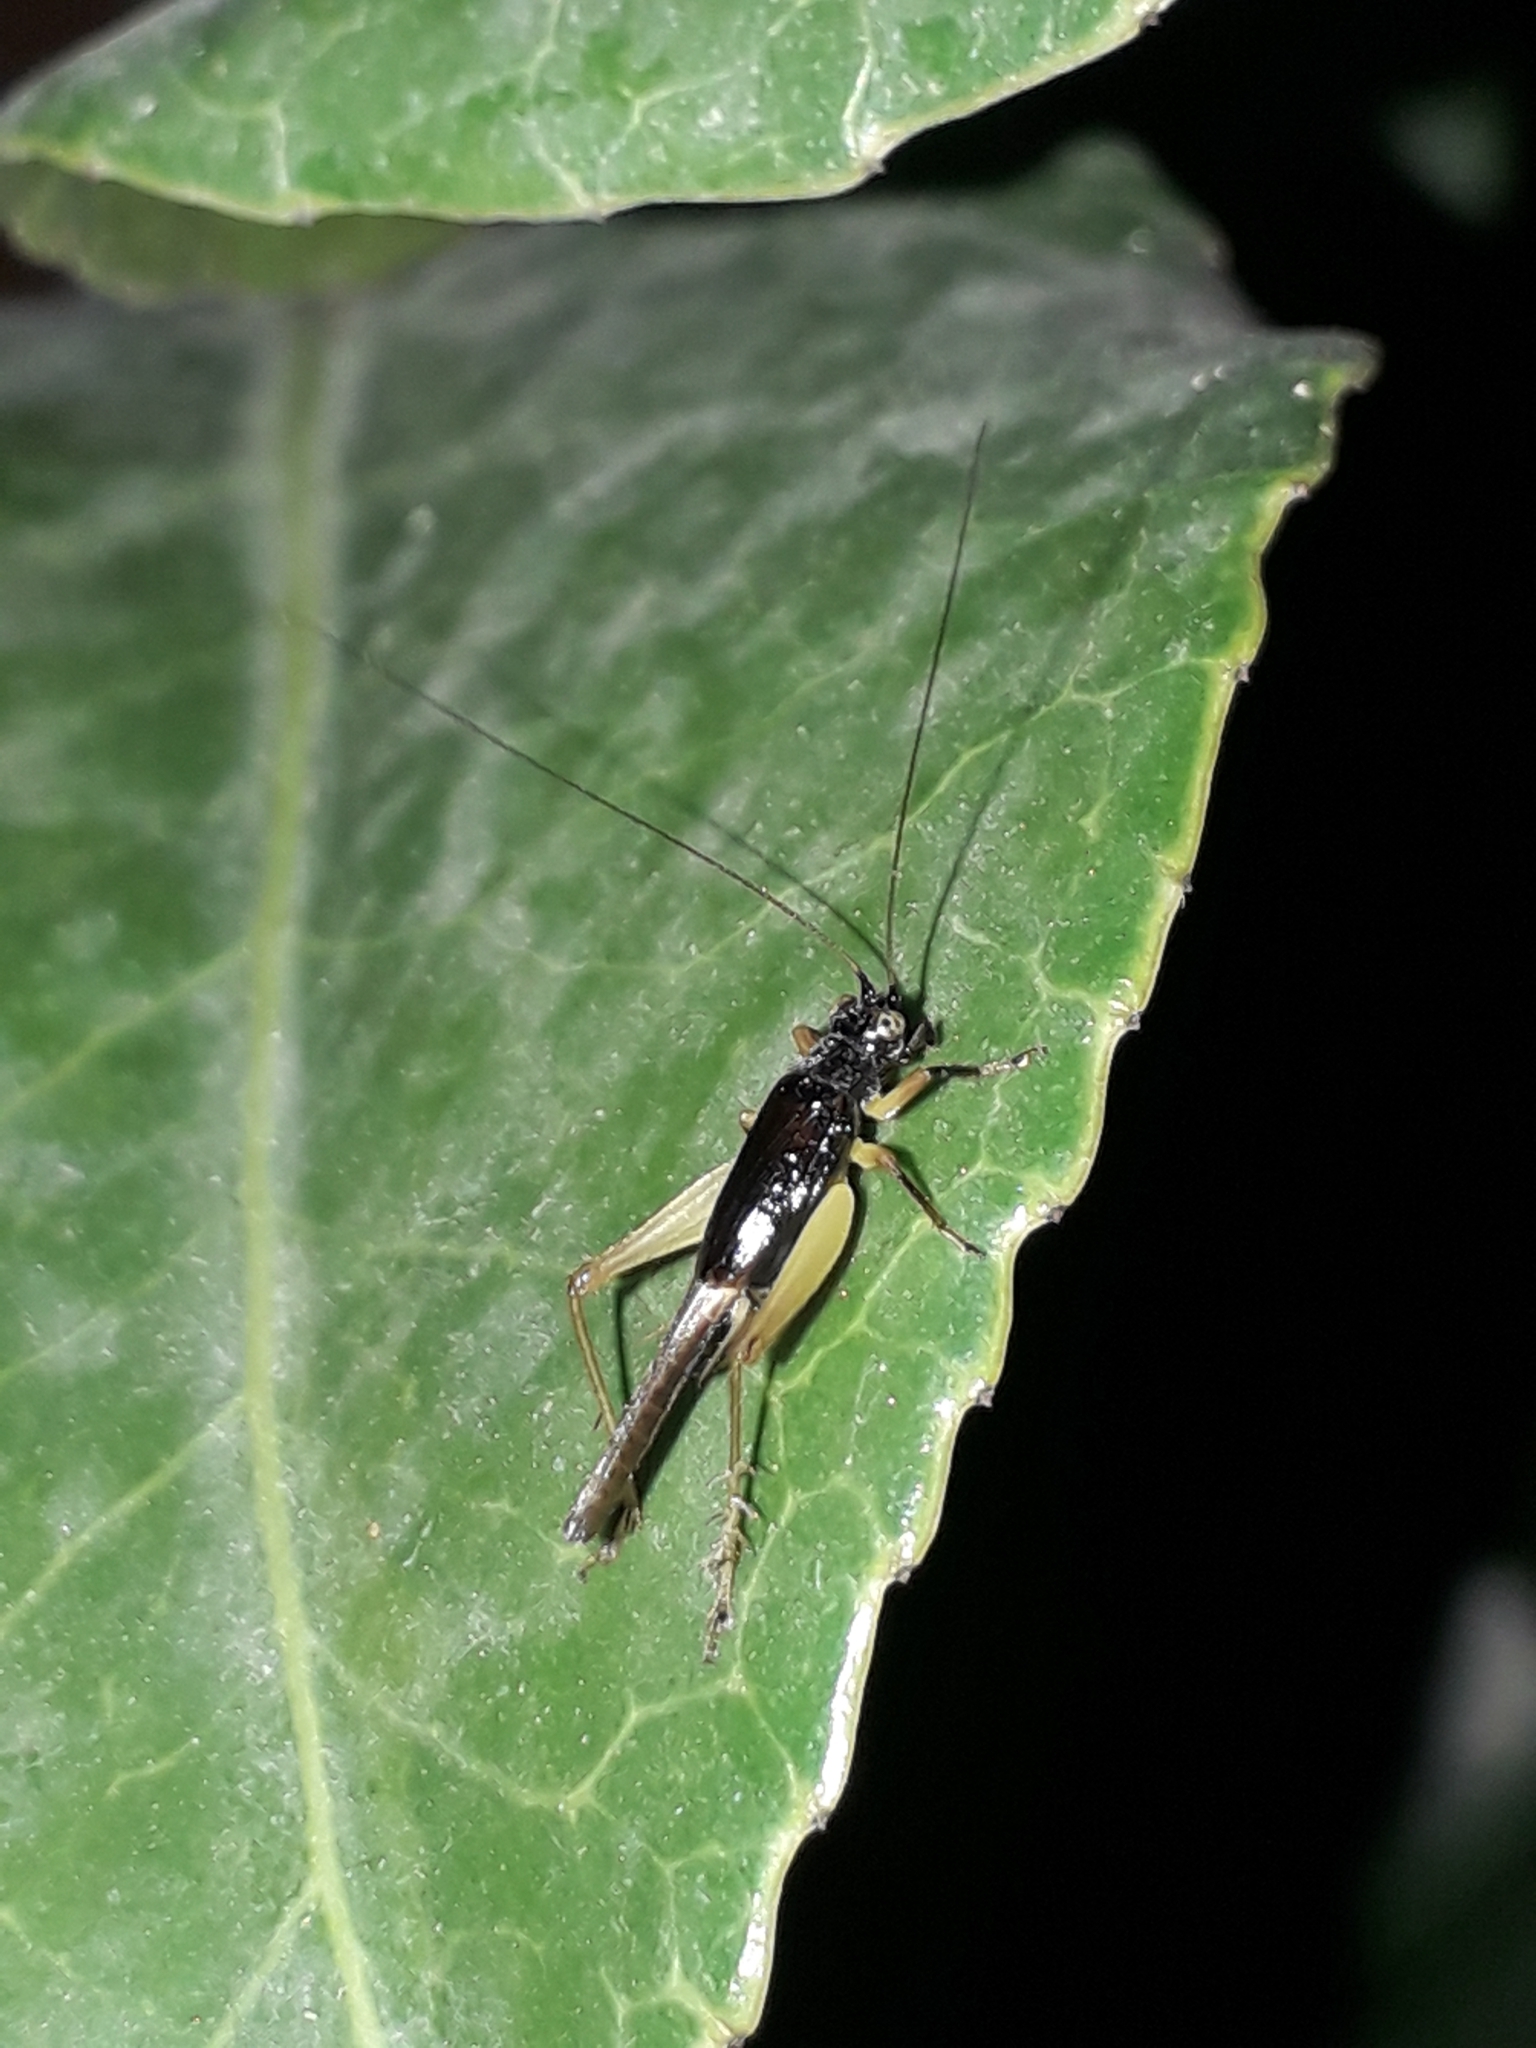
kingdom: Animalia
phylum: Arthropoda
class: Insecta
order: Orthoptera
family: Trigonidiidae
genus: Trigonidium
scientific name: Trigonidium cicindeloides
